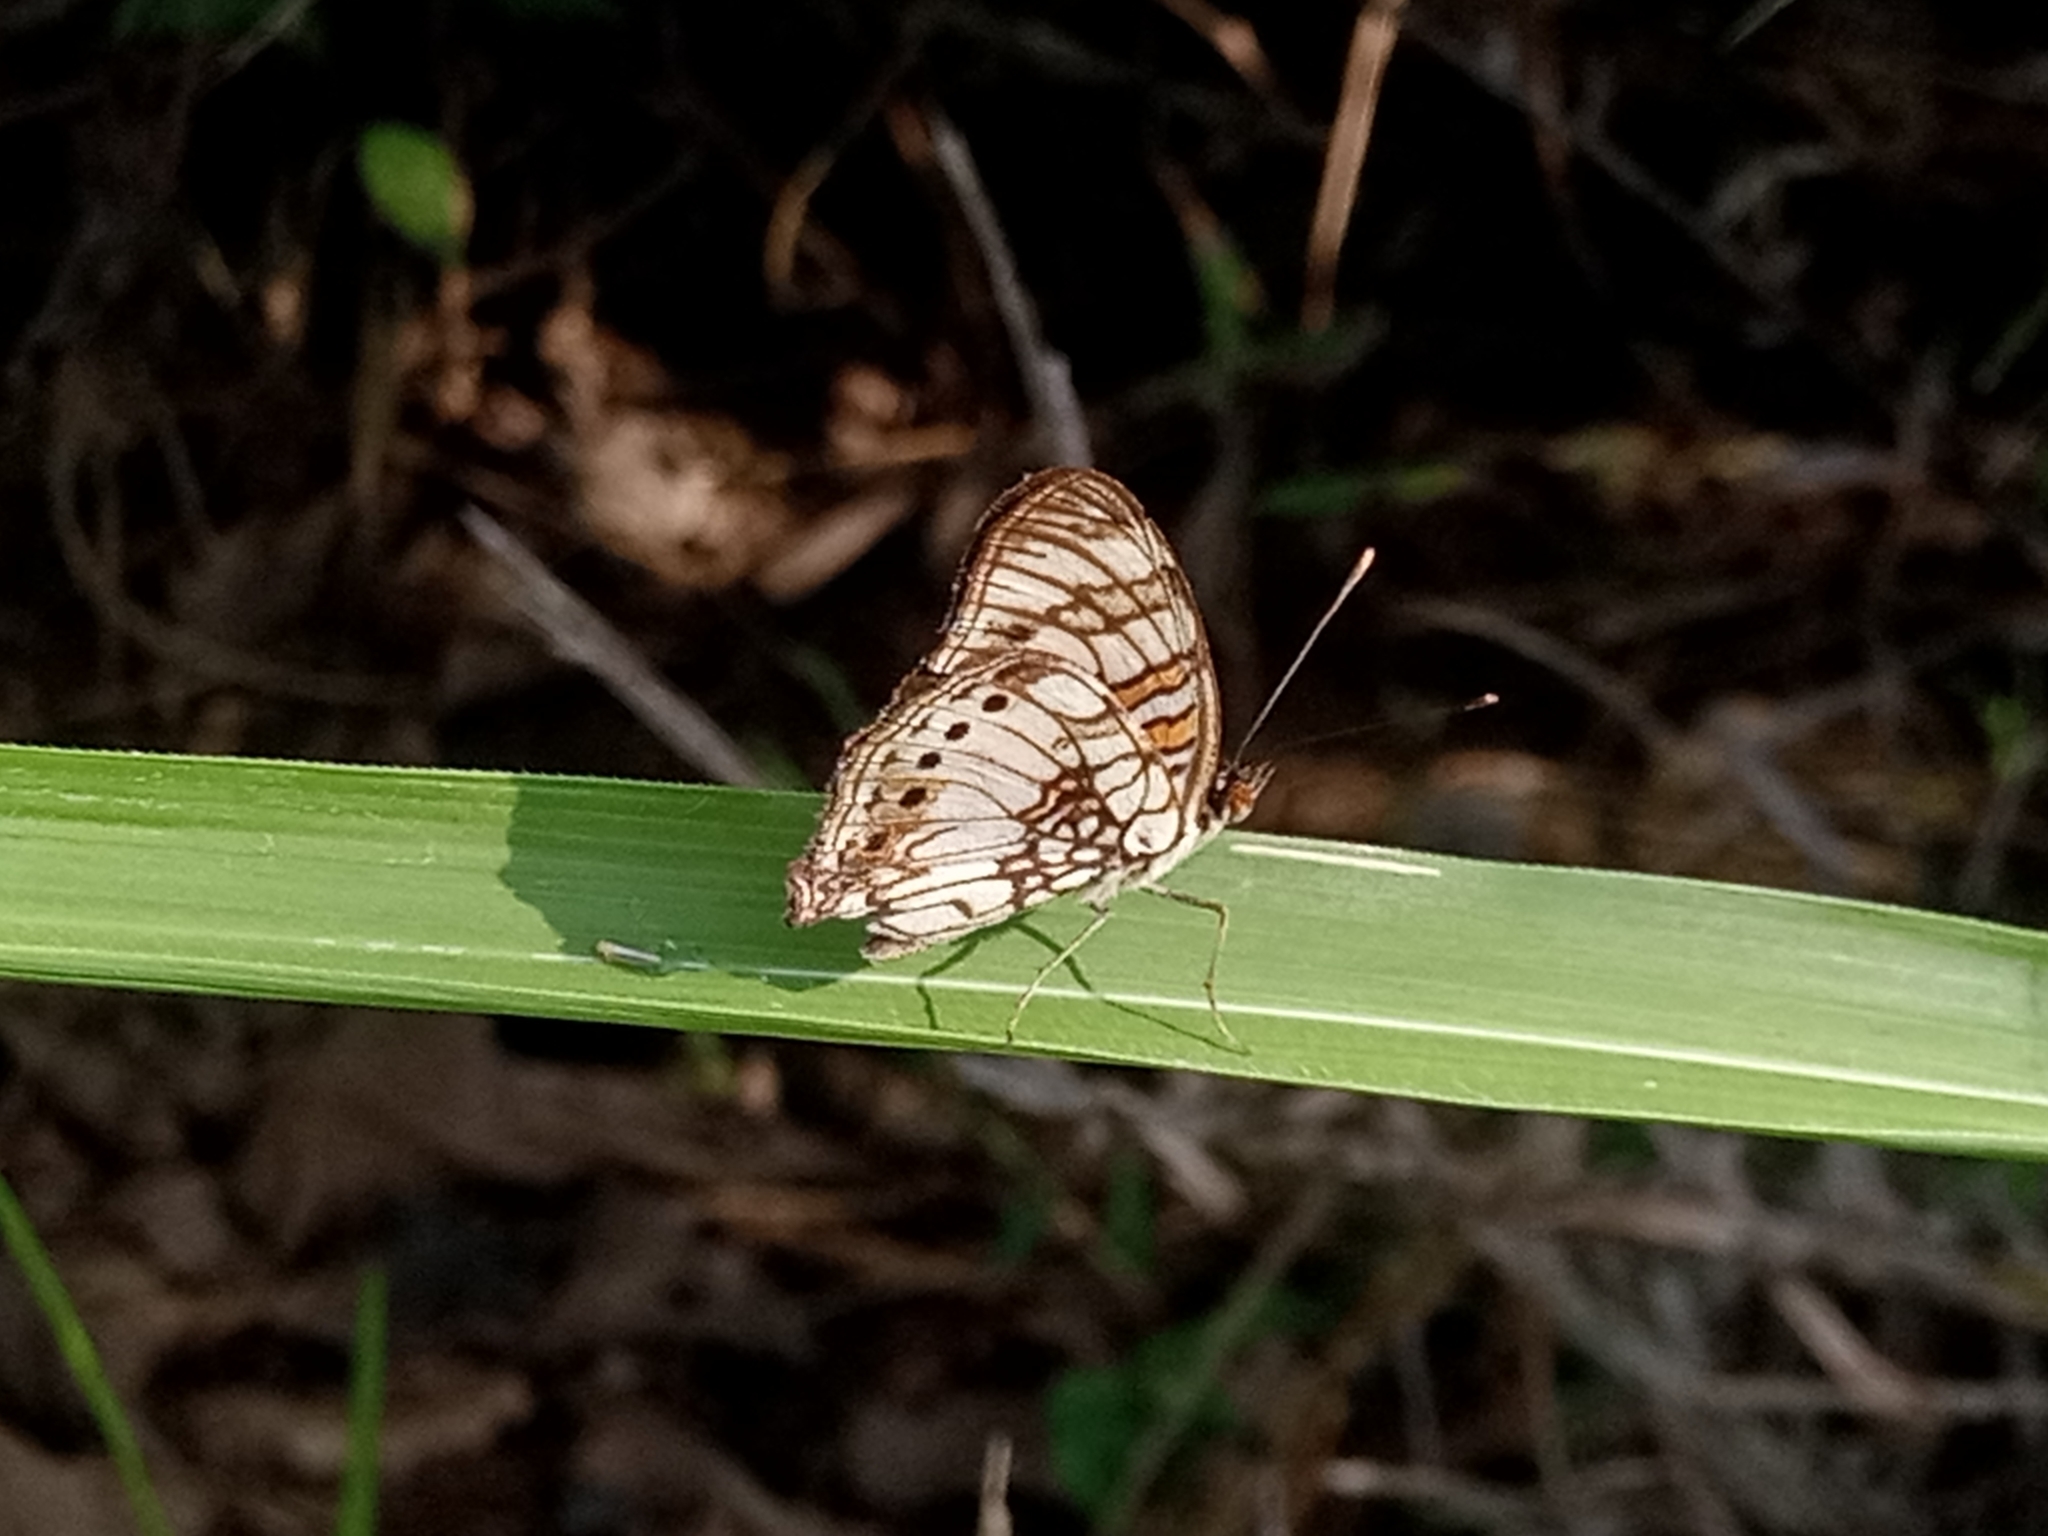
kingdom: Animalia
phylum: Arthropoda
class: Insecta
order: Lepidoptera
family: Nymphalidae
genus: Junonia
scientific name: Junonia sophia
